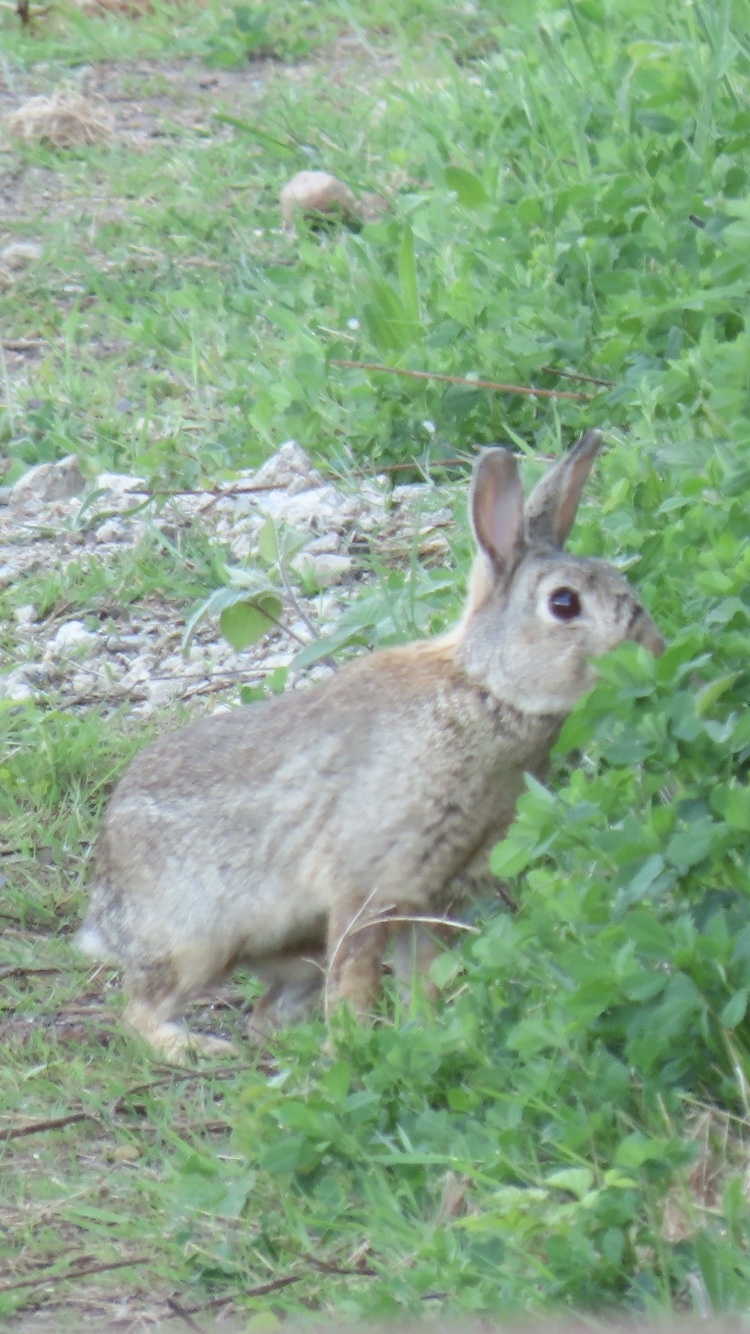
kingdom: Animalia
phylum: Chordata
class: Mammalia
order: Lagomorpha
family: Leporidae
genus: Oryctolagus
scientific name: Oryctolagus cuniculus
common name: European rabbit
